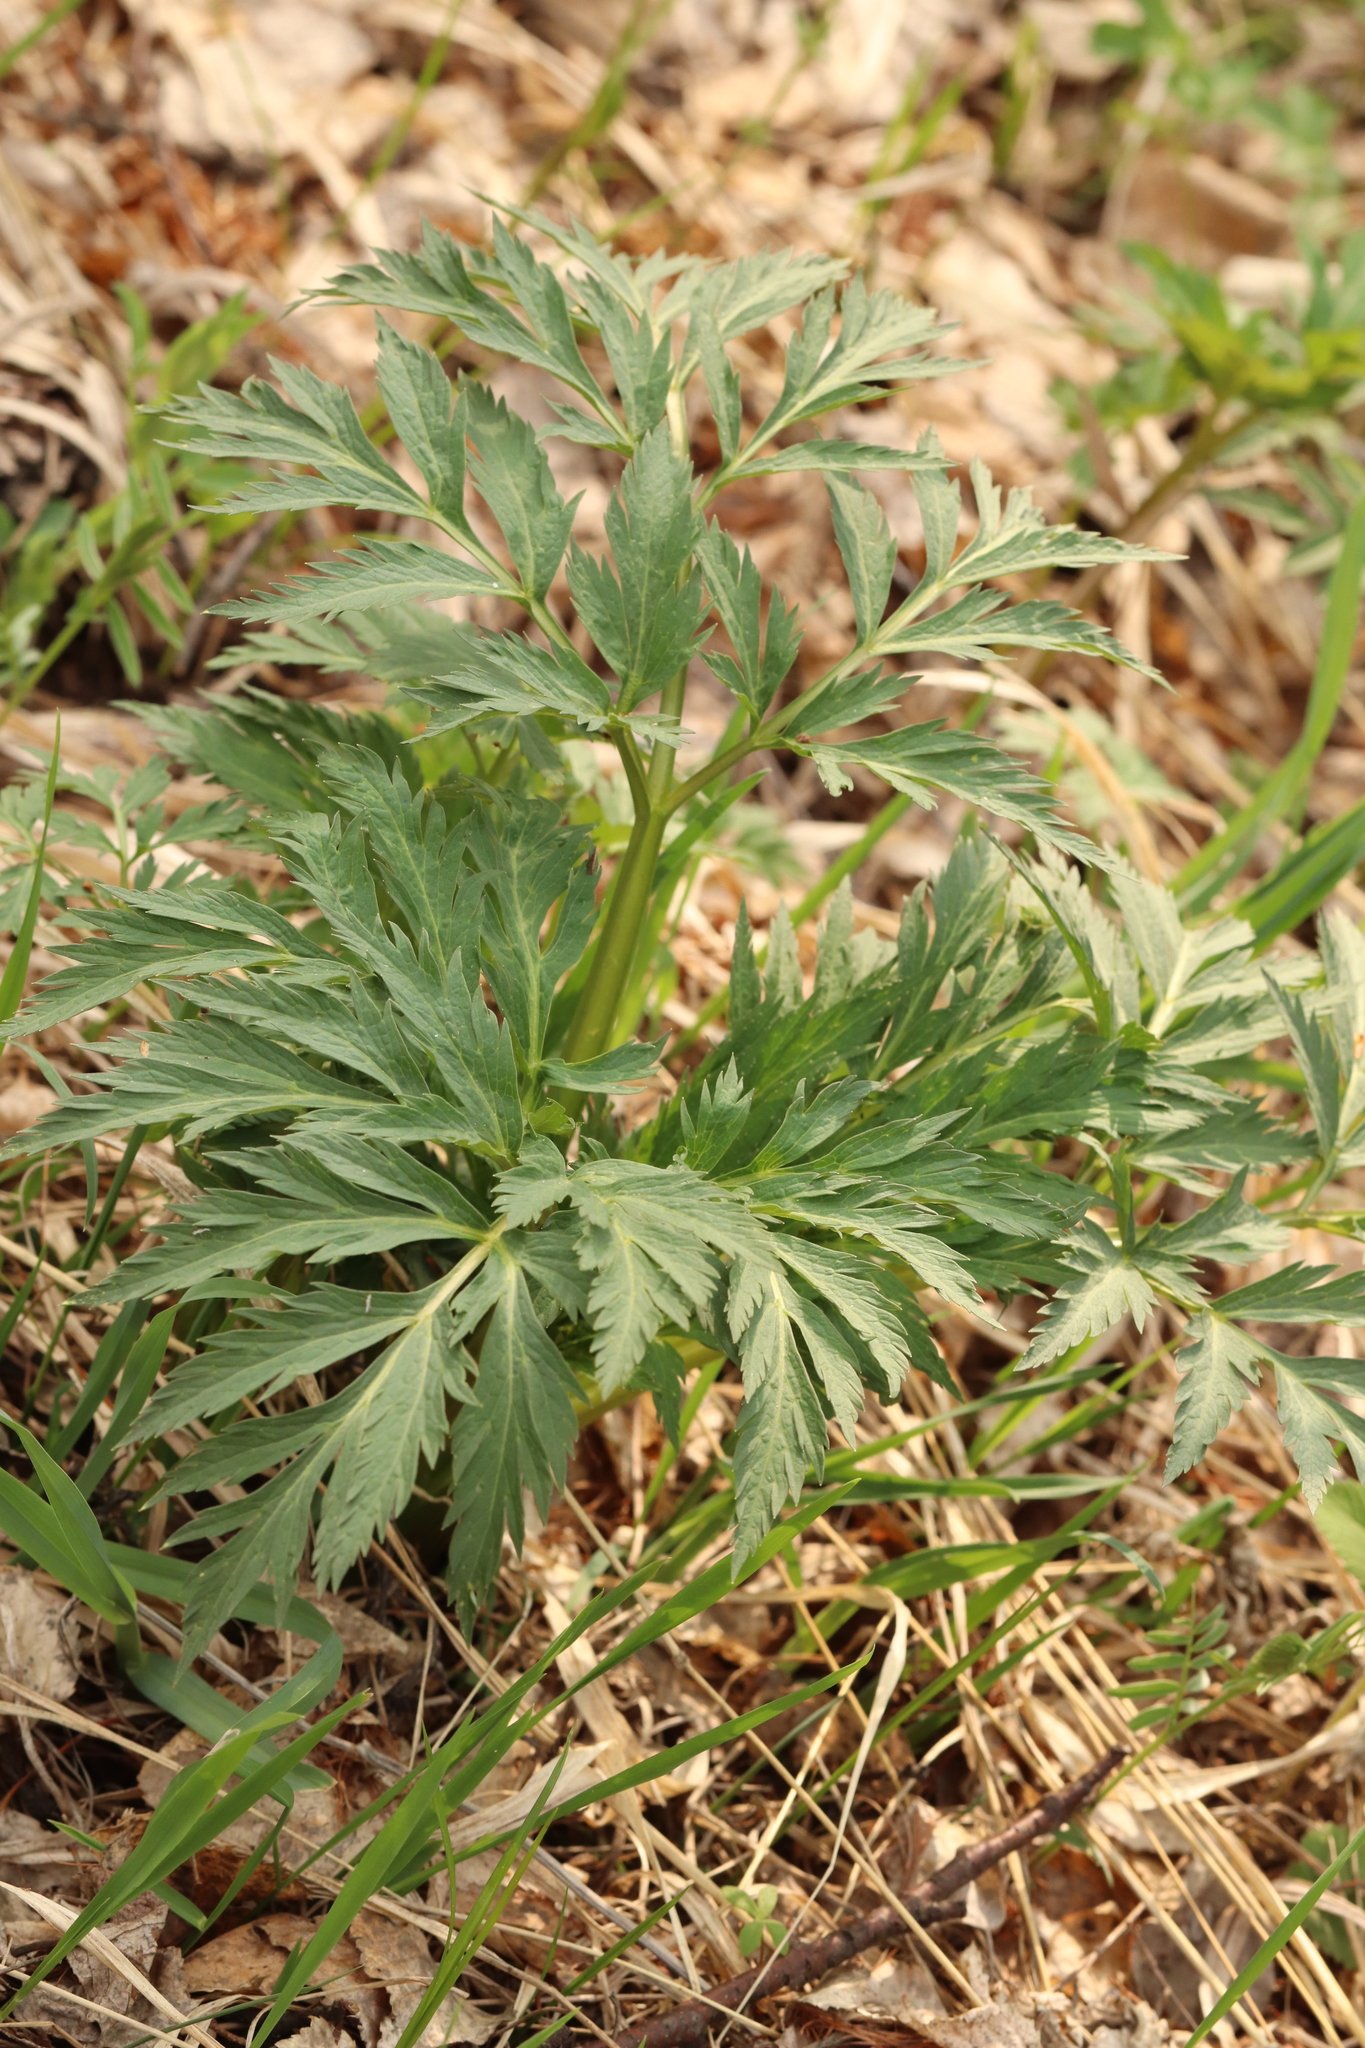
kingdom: Plantae
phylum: Tracheophyta
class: Magnoliopsida
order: Apiales
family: Apiaceae
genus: Pleurospermum
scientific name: Pleurospermum uralense
